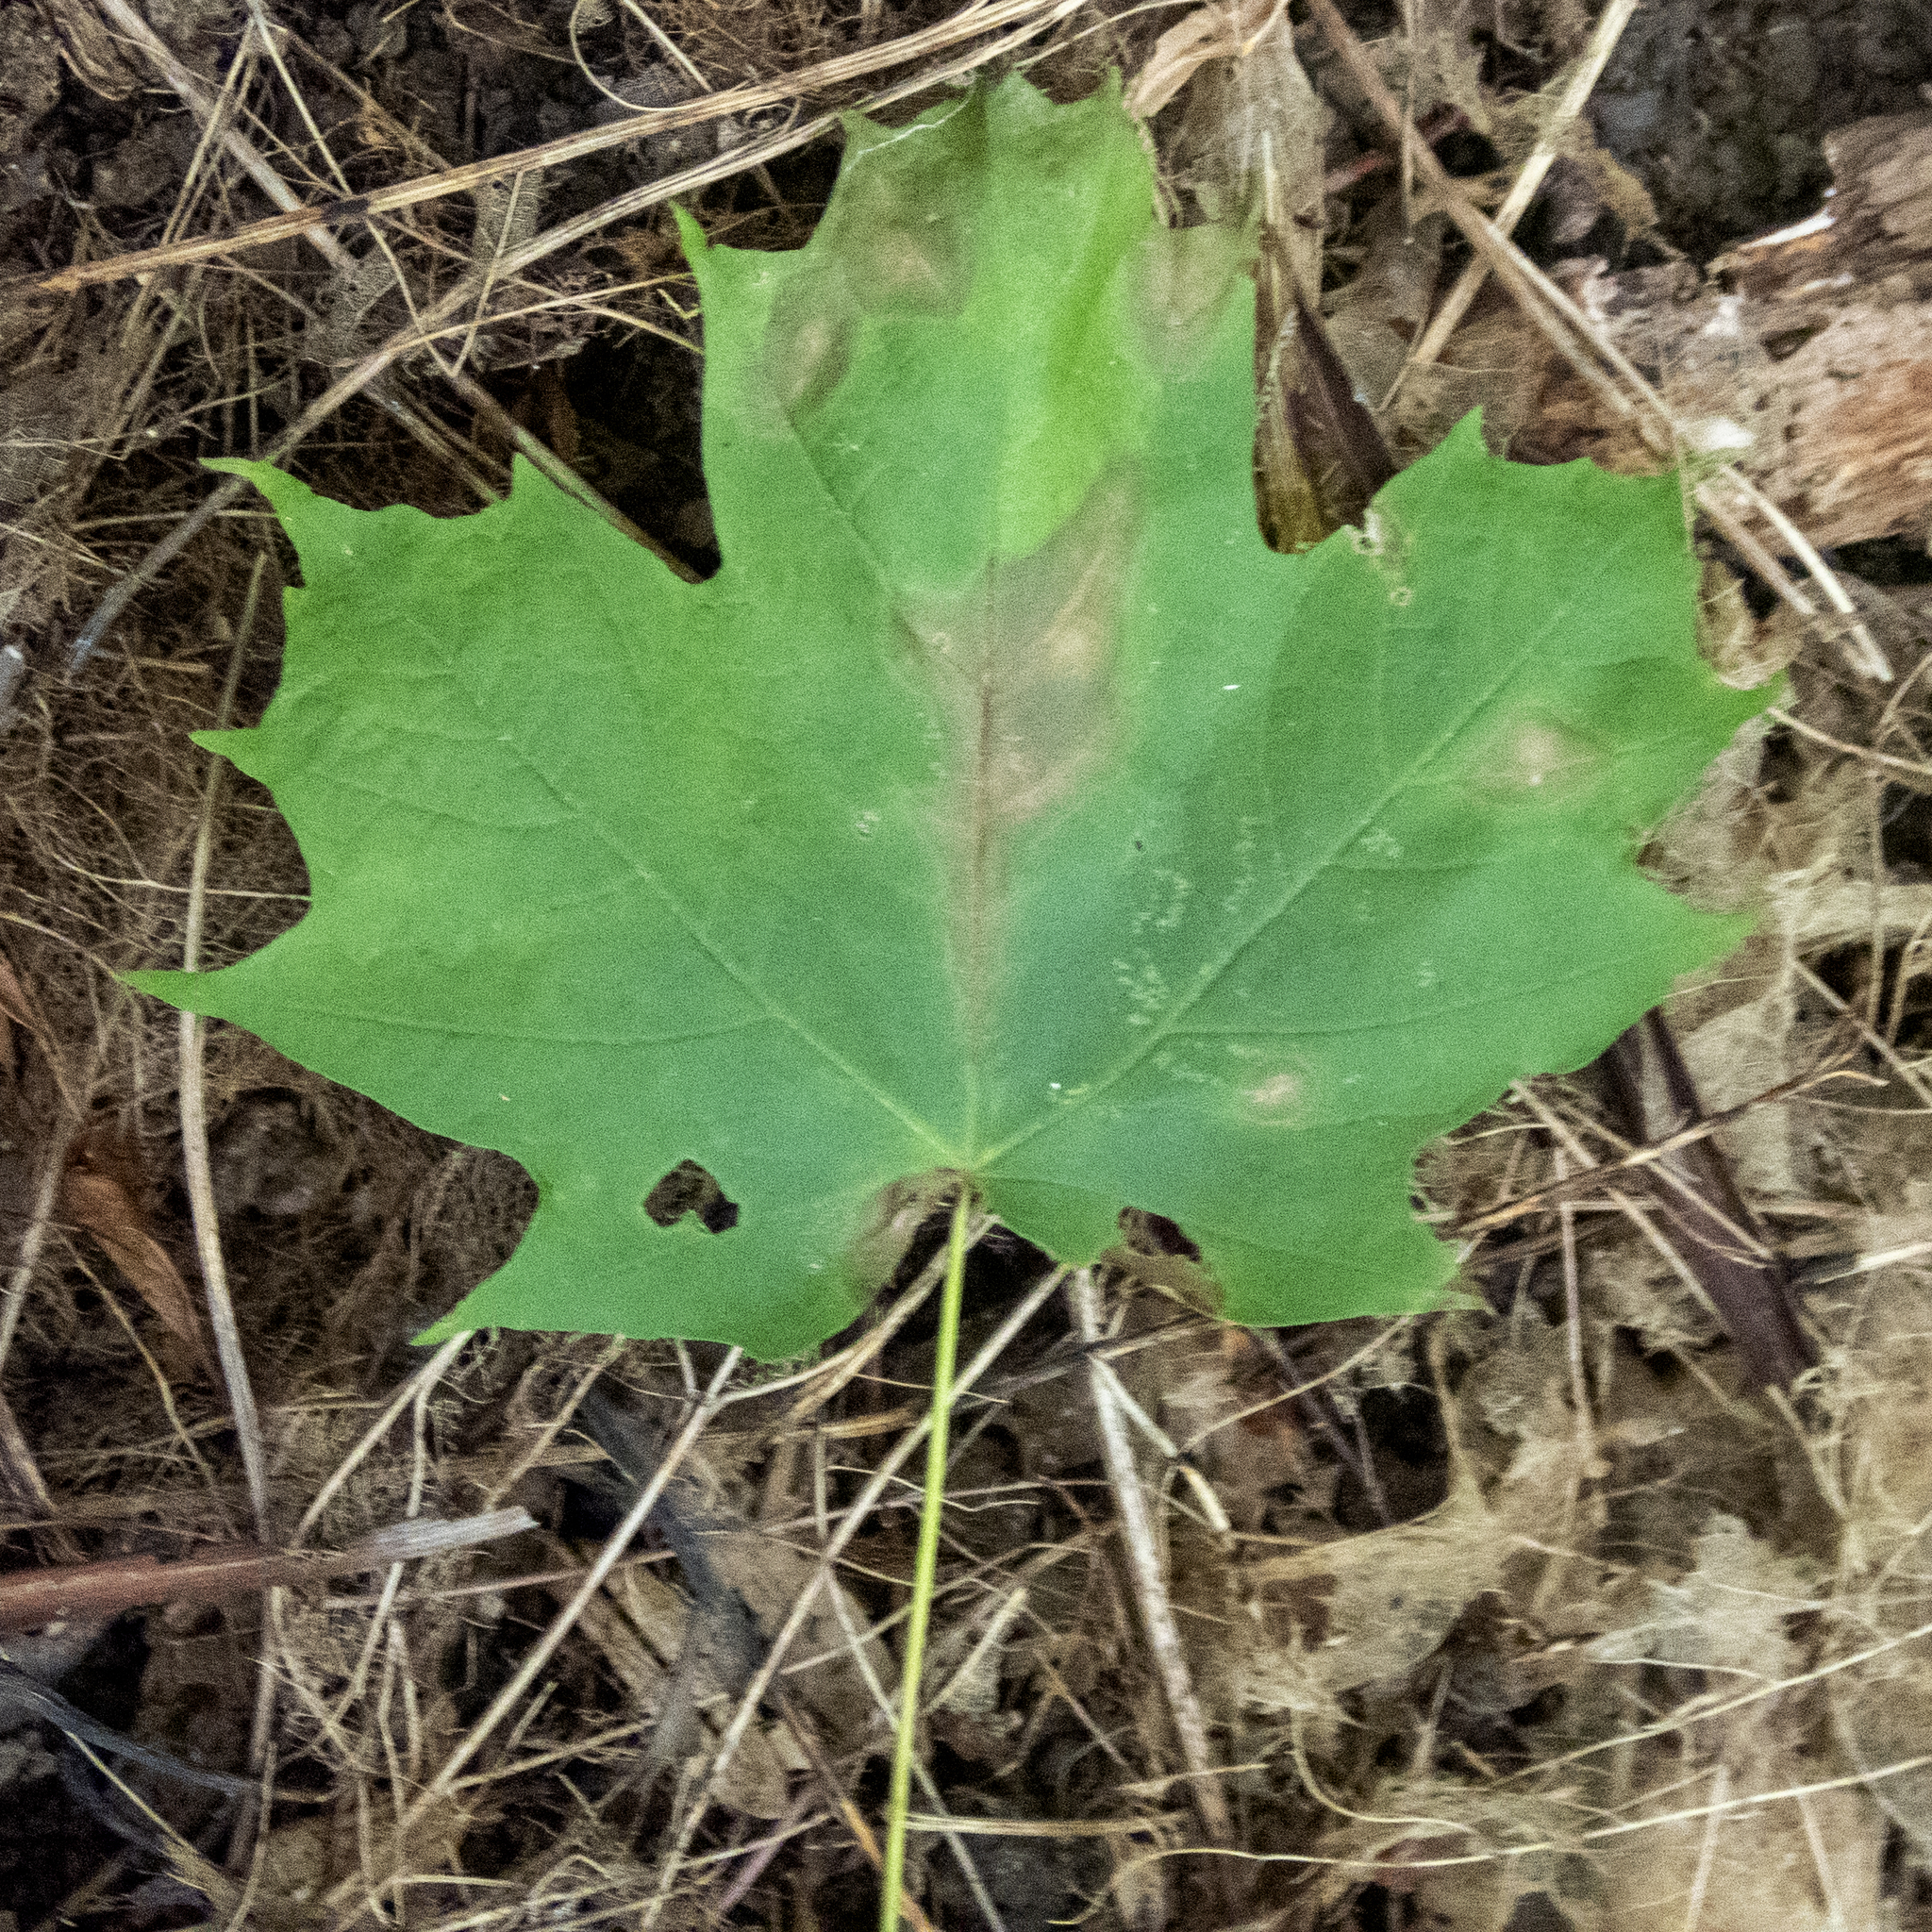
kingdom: Plantae
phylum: Tracheophyta
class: Magnoliopsida
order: Sapindales
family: Sapindaceae
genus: Acer
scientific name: Acer saccharum
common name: Sugar maple
